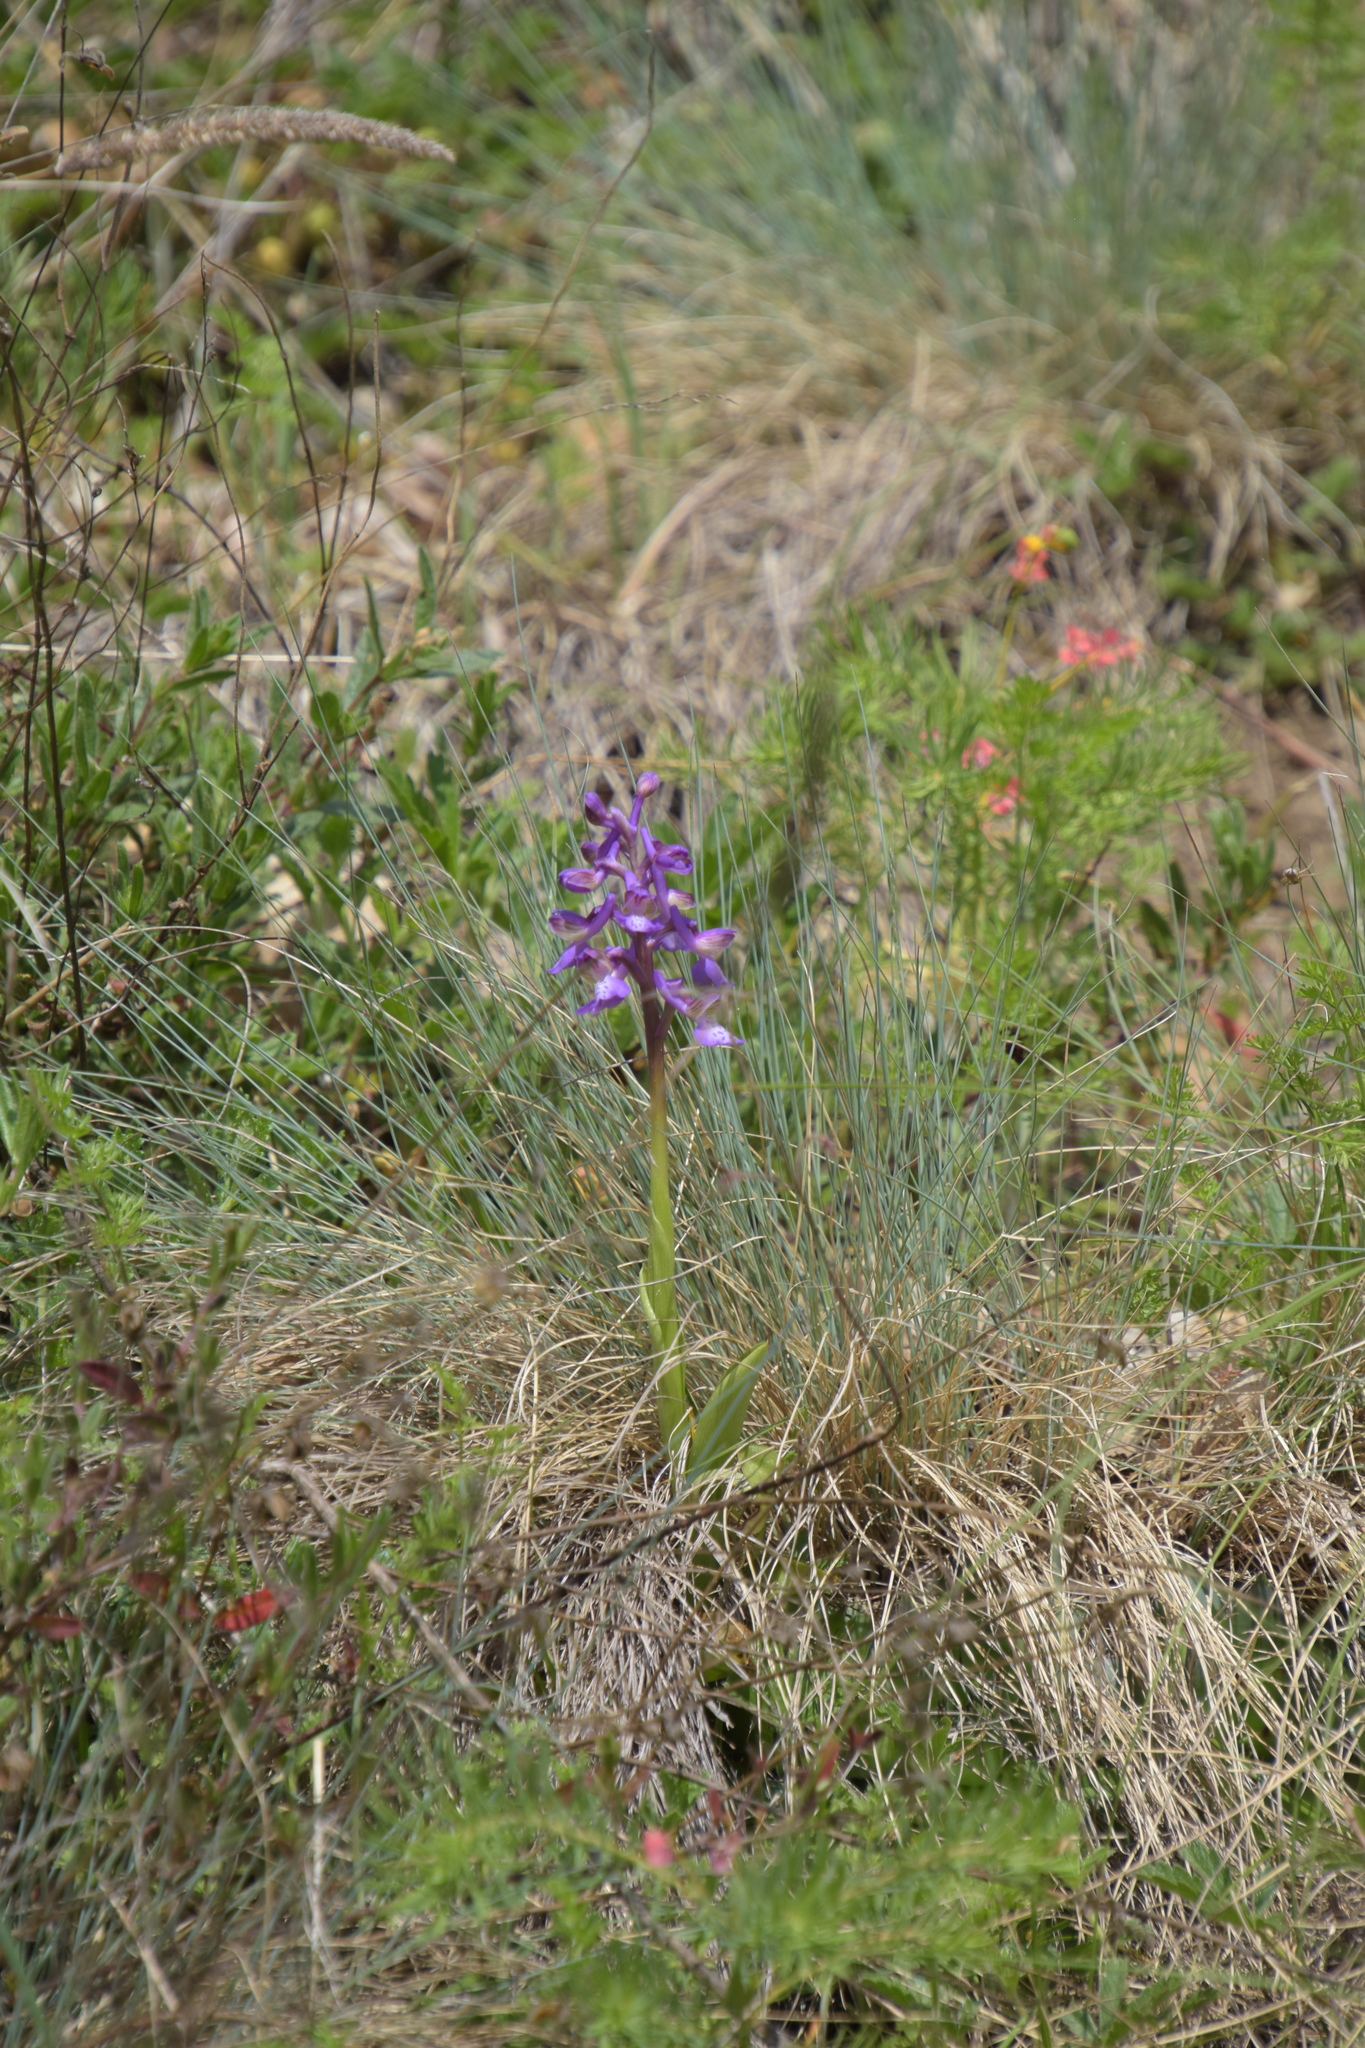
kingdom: Plantae
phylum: Tracheophyta
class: Liliopsida
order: Asparagales
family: Orchidaceae
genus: Anacamptis
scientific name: Anacamptis morio
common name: Green-winged orchid
